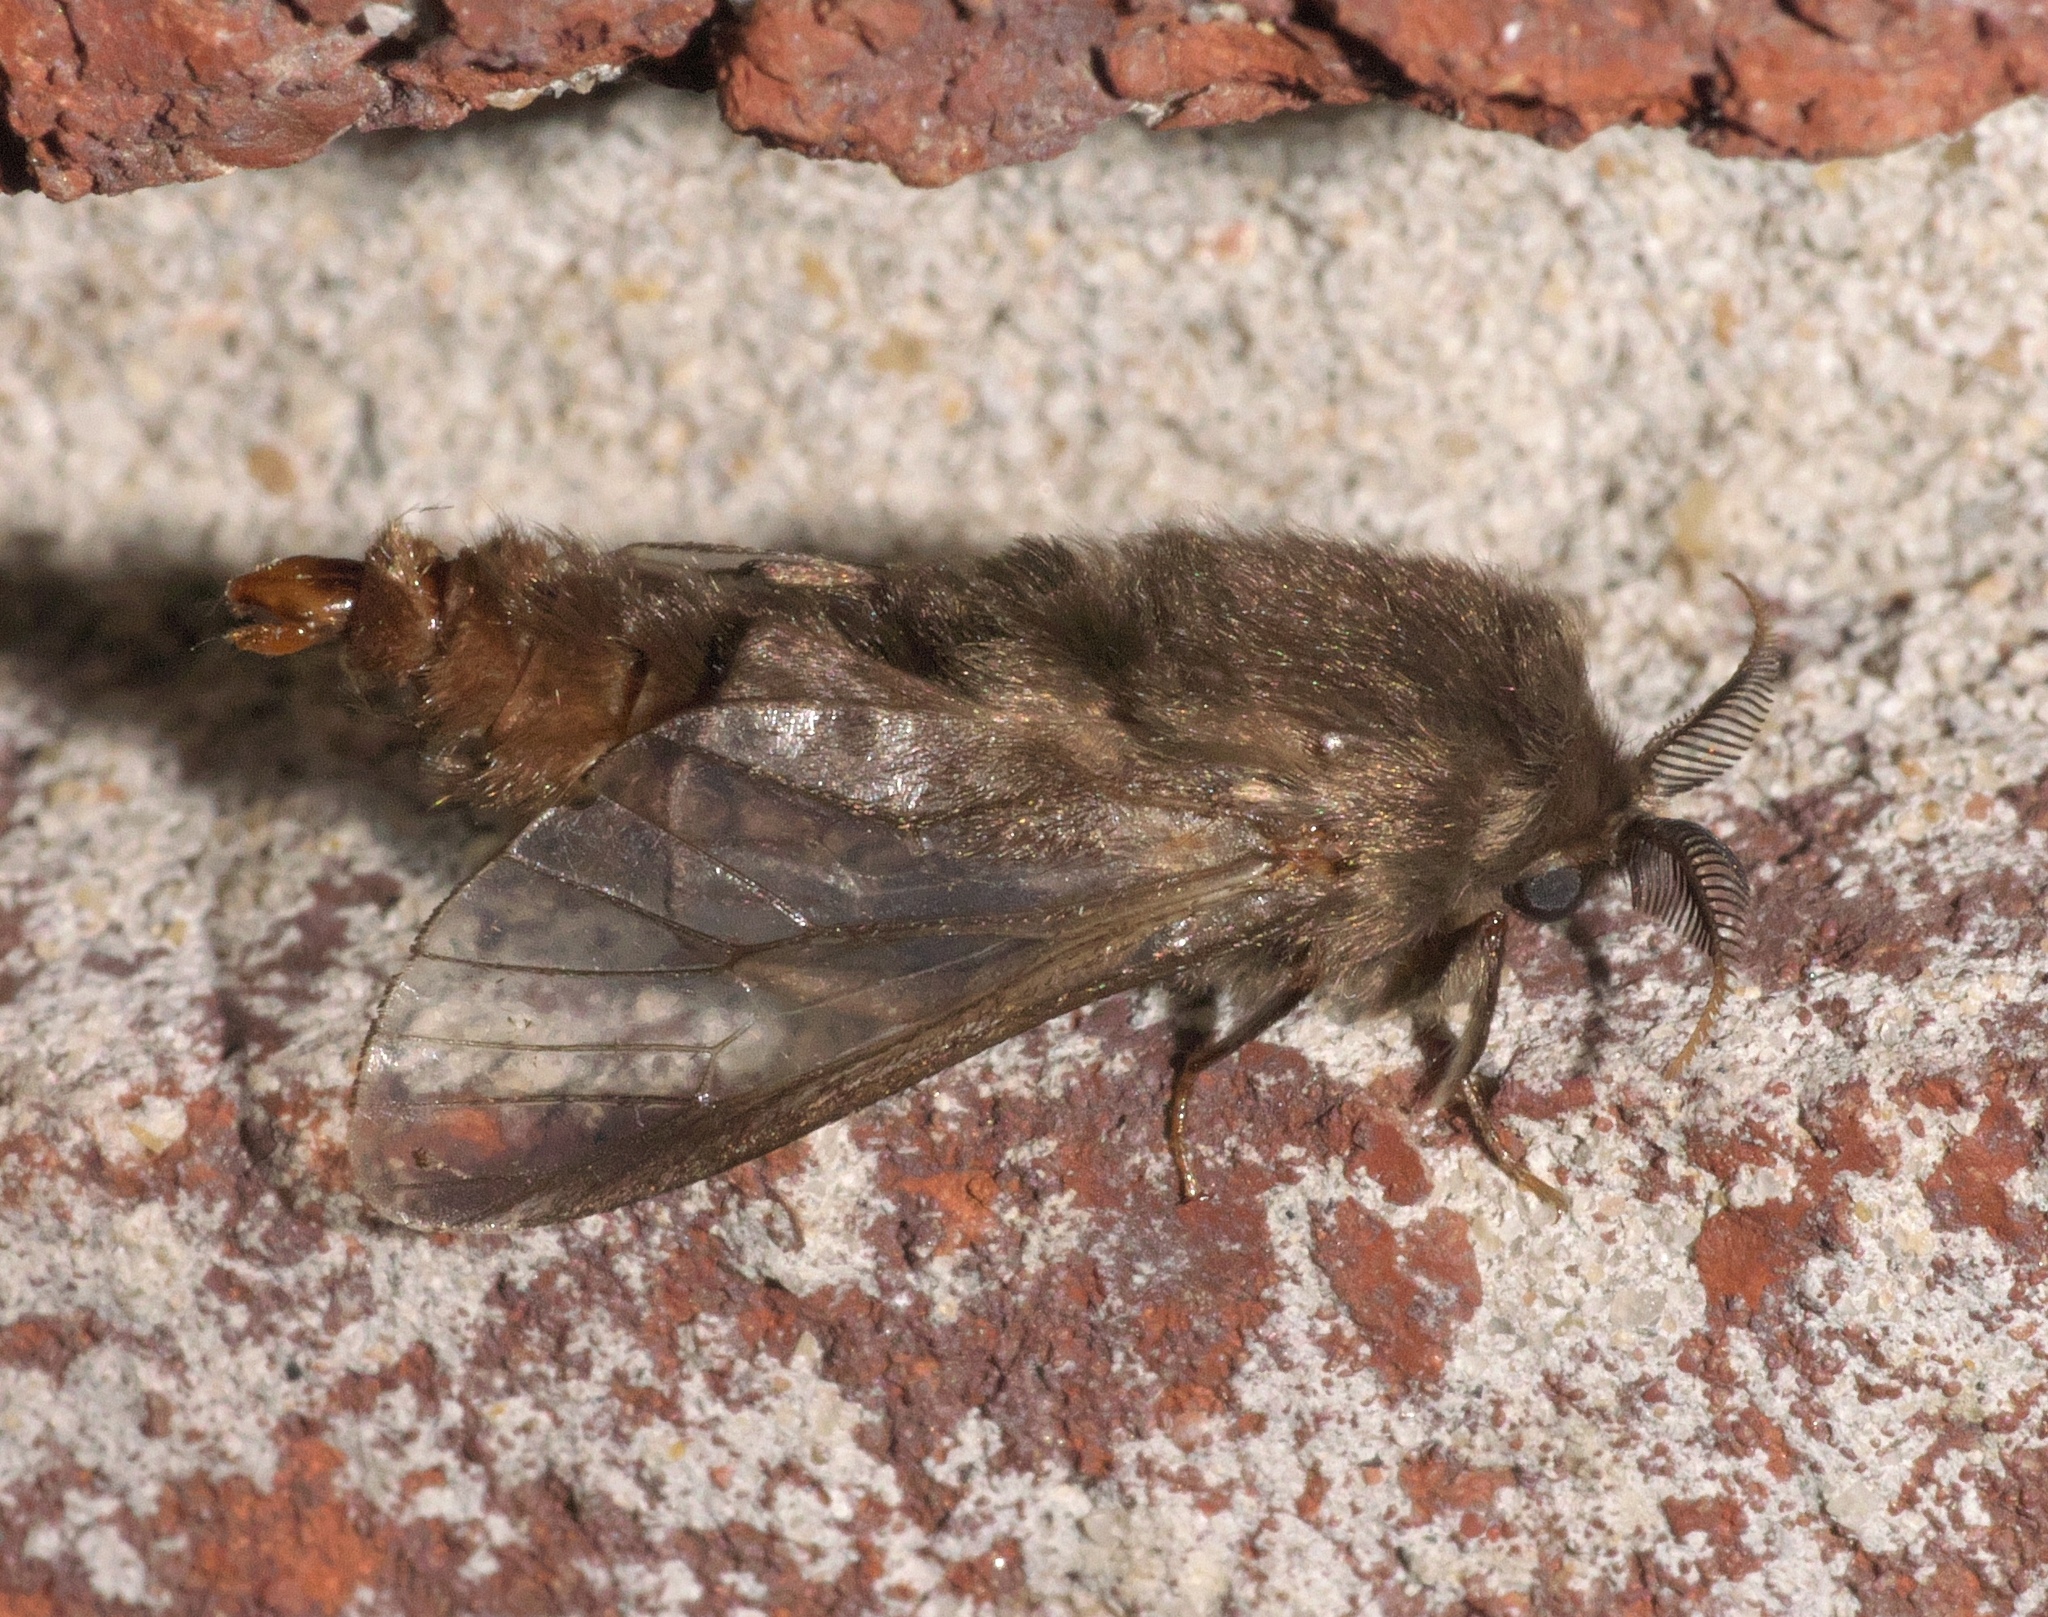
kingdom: Animalia
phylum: Arthropoda
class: Insecta
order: Lepidoptera
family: Psychidae
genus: Thyridopteryx
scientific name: Thyridopteryx ephemeraeformis
